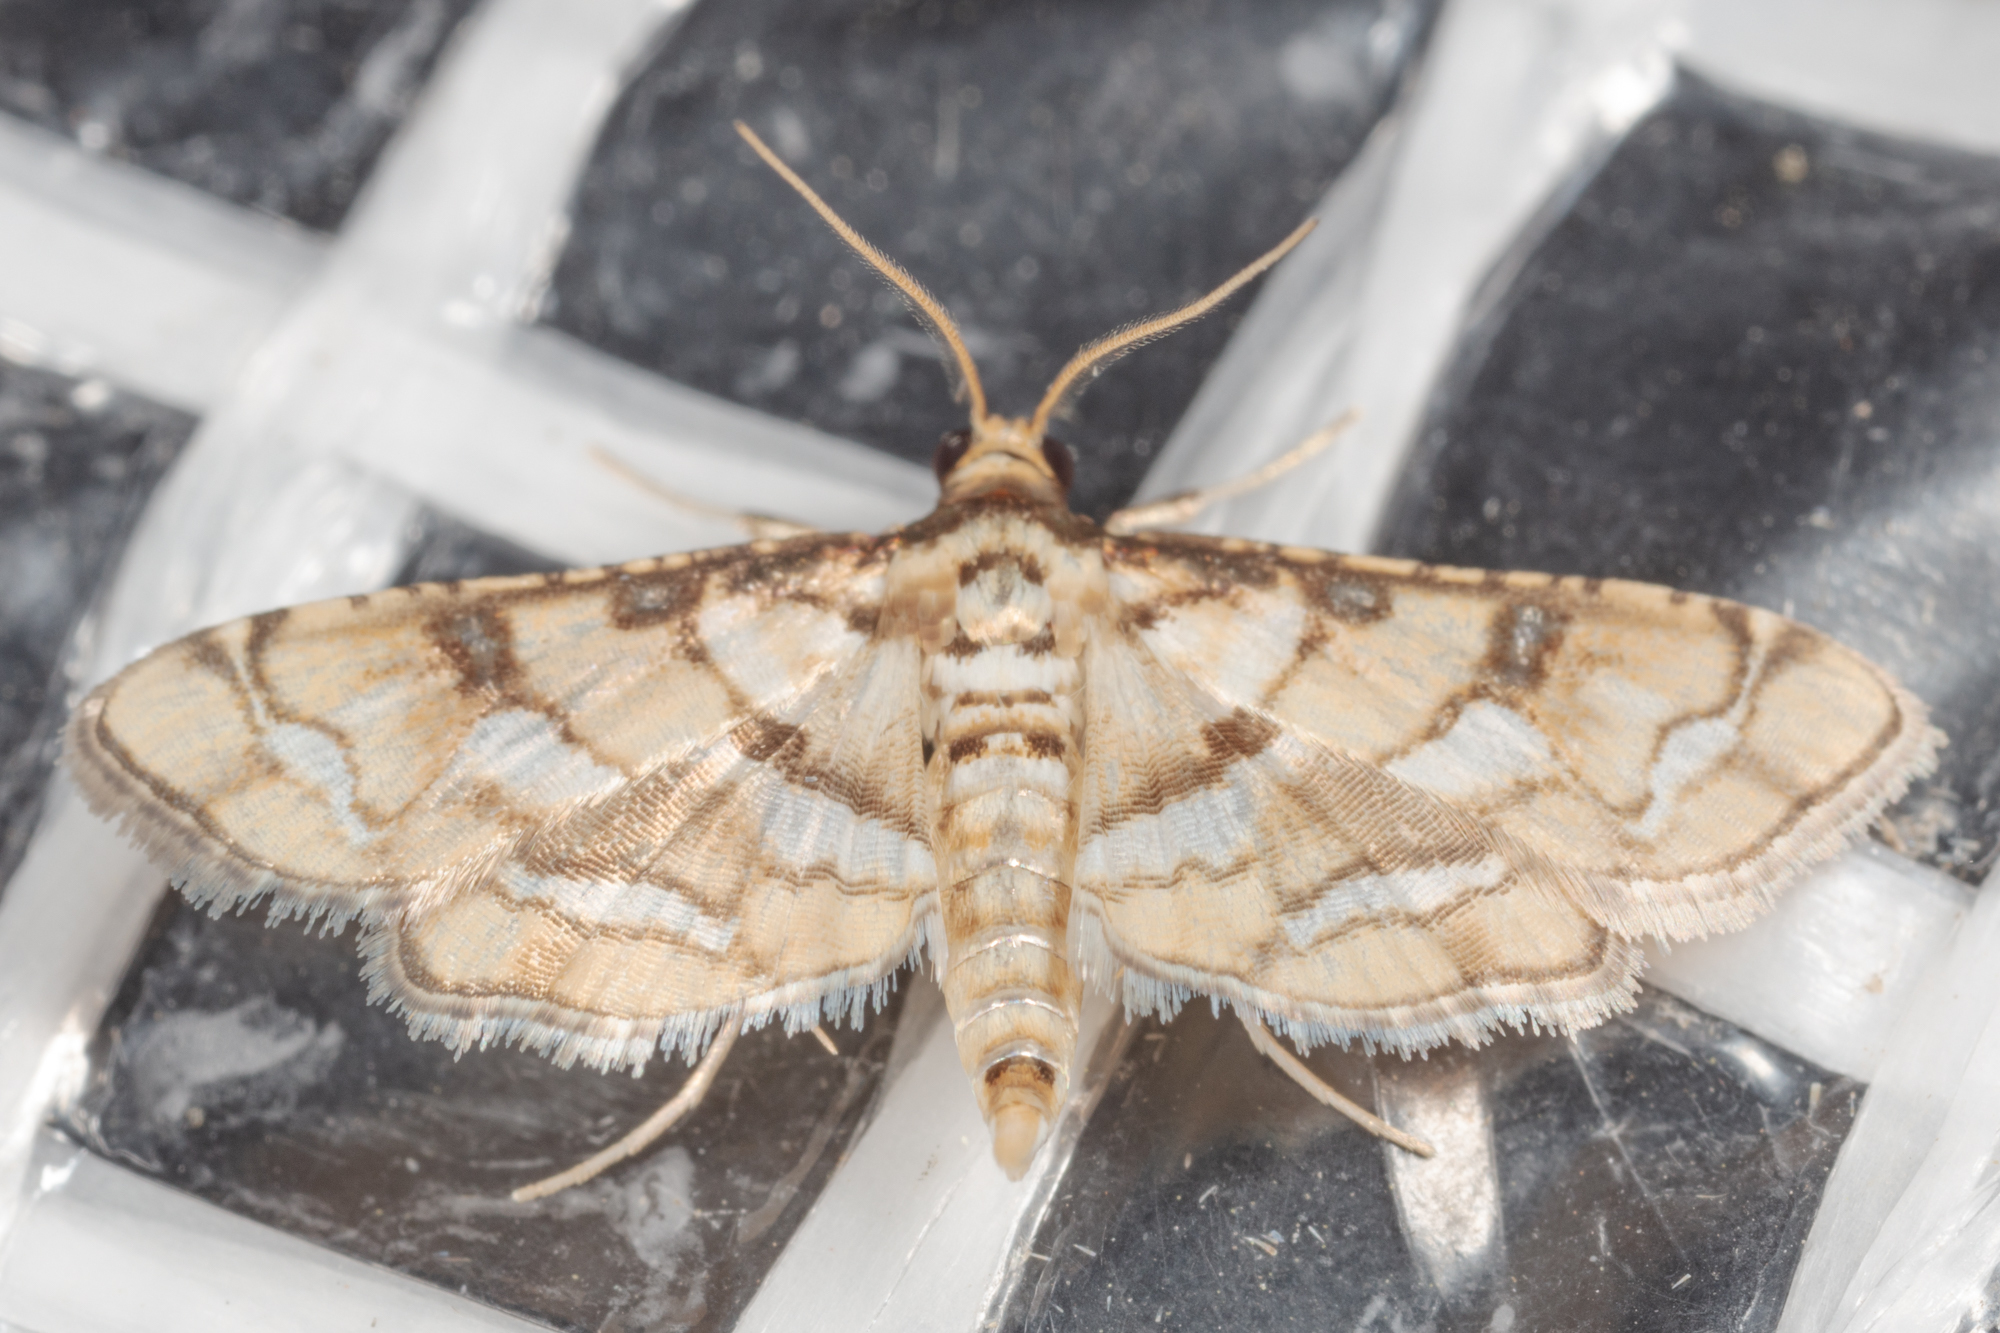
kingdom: Animalia
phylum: Arthropoda
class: Insecta
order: Lepidoptera
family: Crambidae
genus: Hileithia
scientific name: Hileithia magualis
